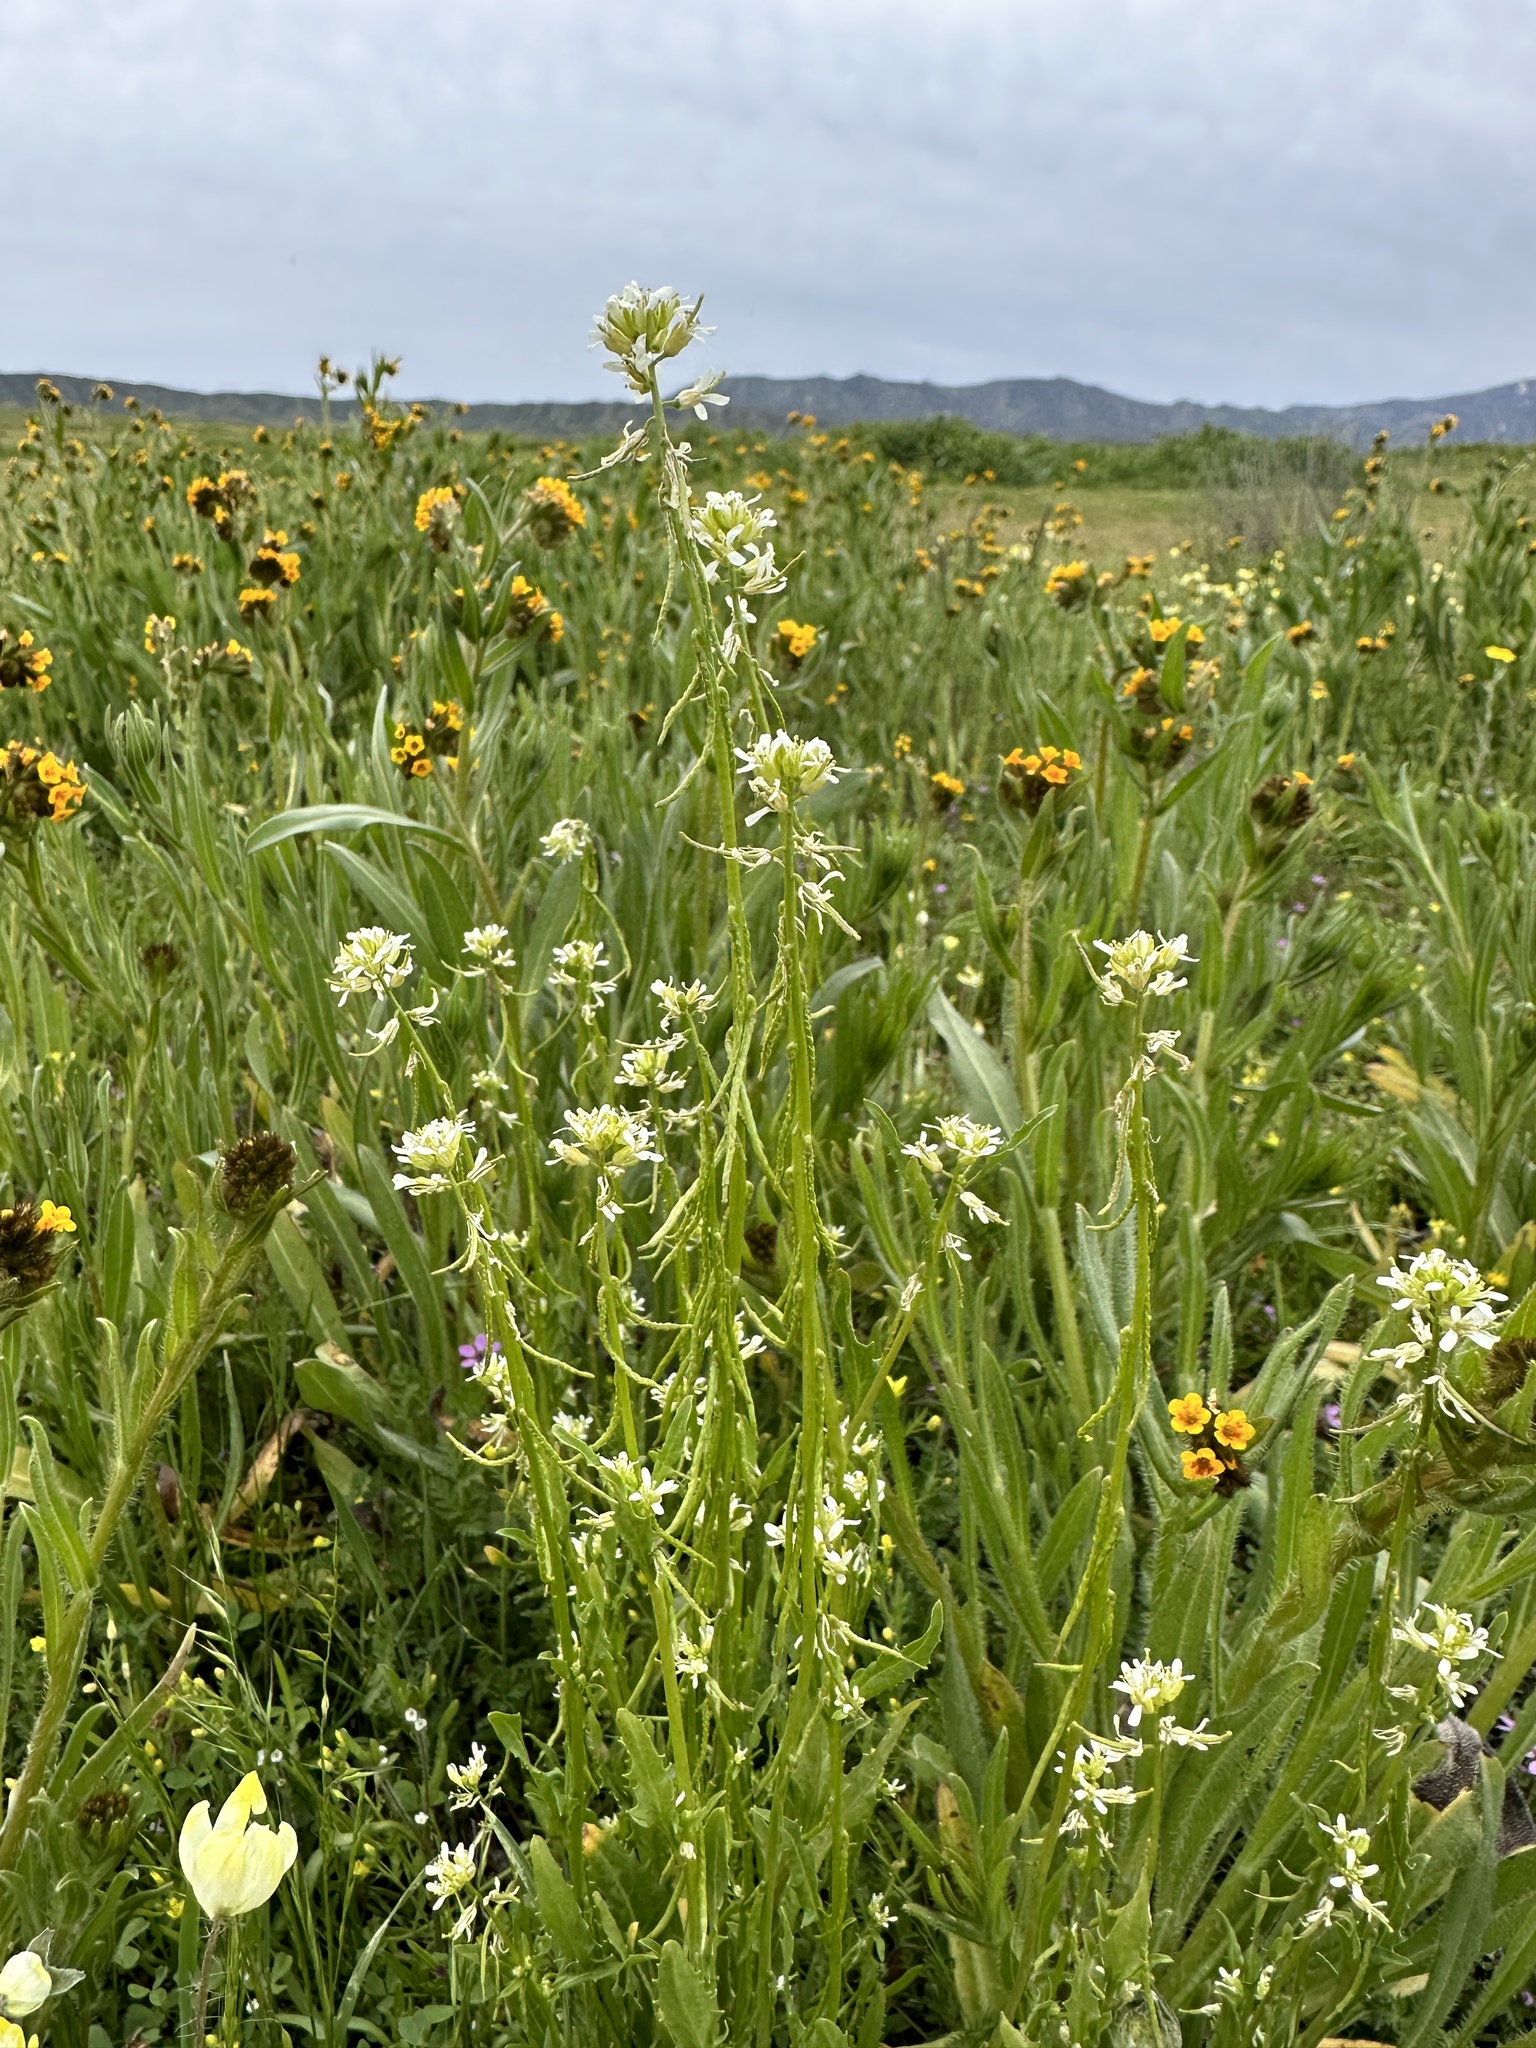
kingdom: Plantae
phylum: Tracheophyta
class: Magnoliopsida
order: Brassicales
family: Brassicaceae
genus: Streptanthus
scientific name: Streptanthus lasiophyllus
